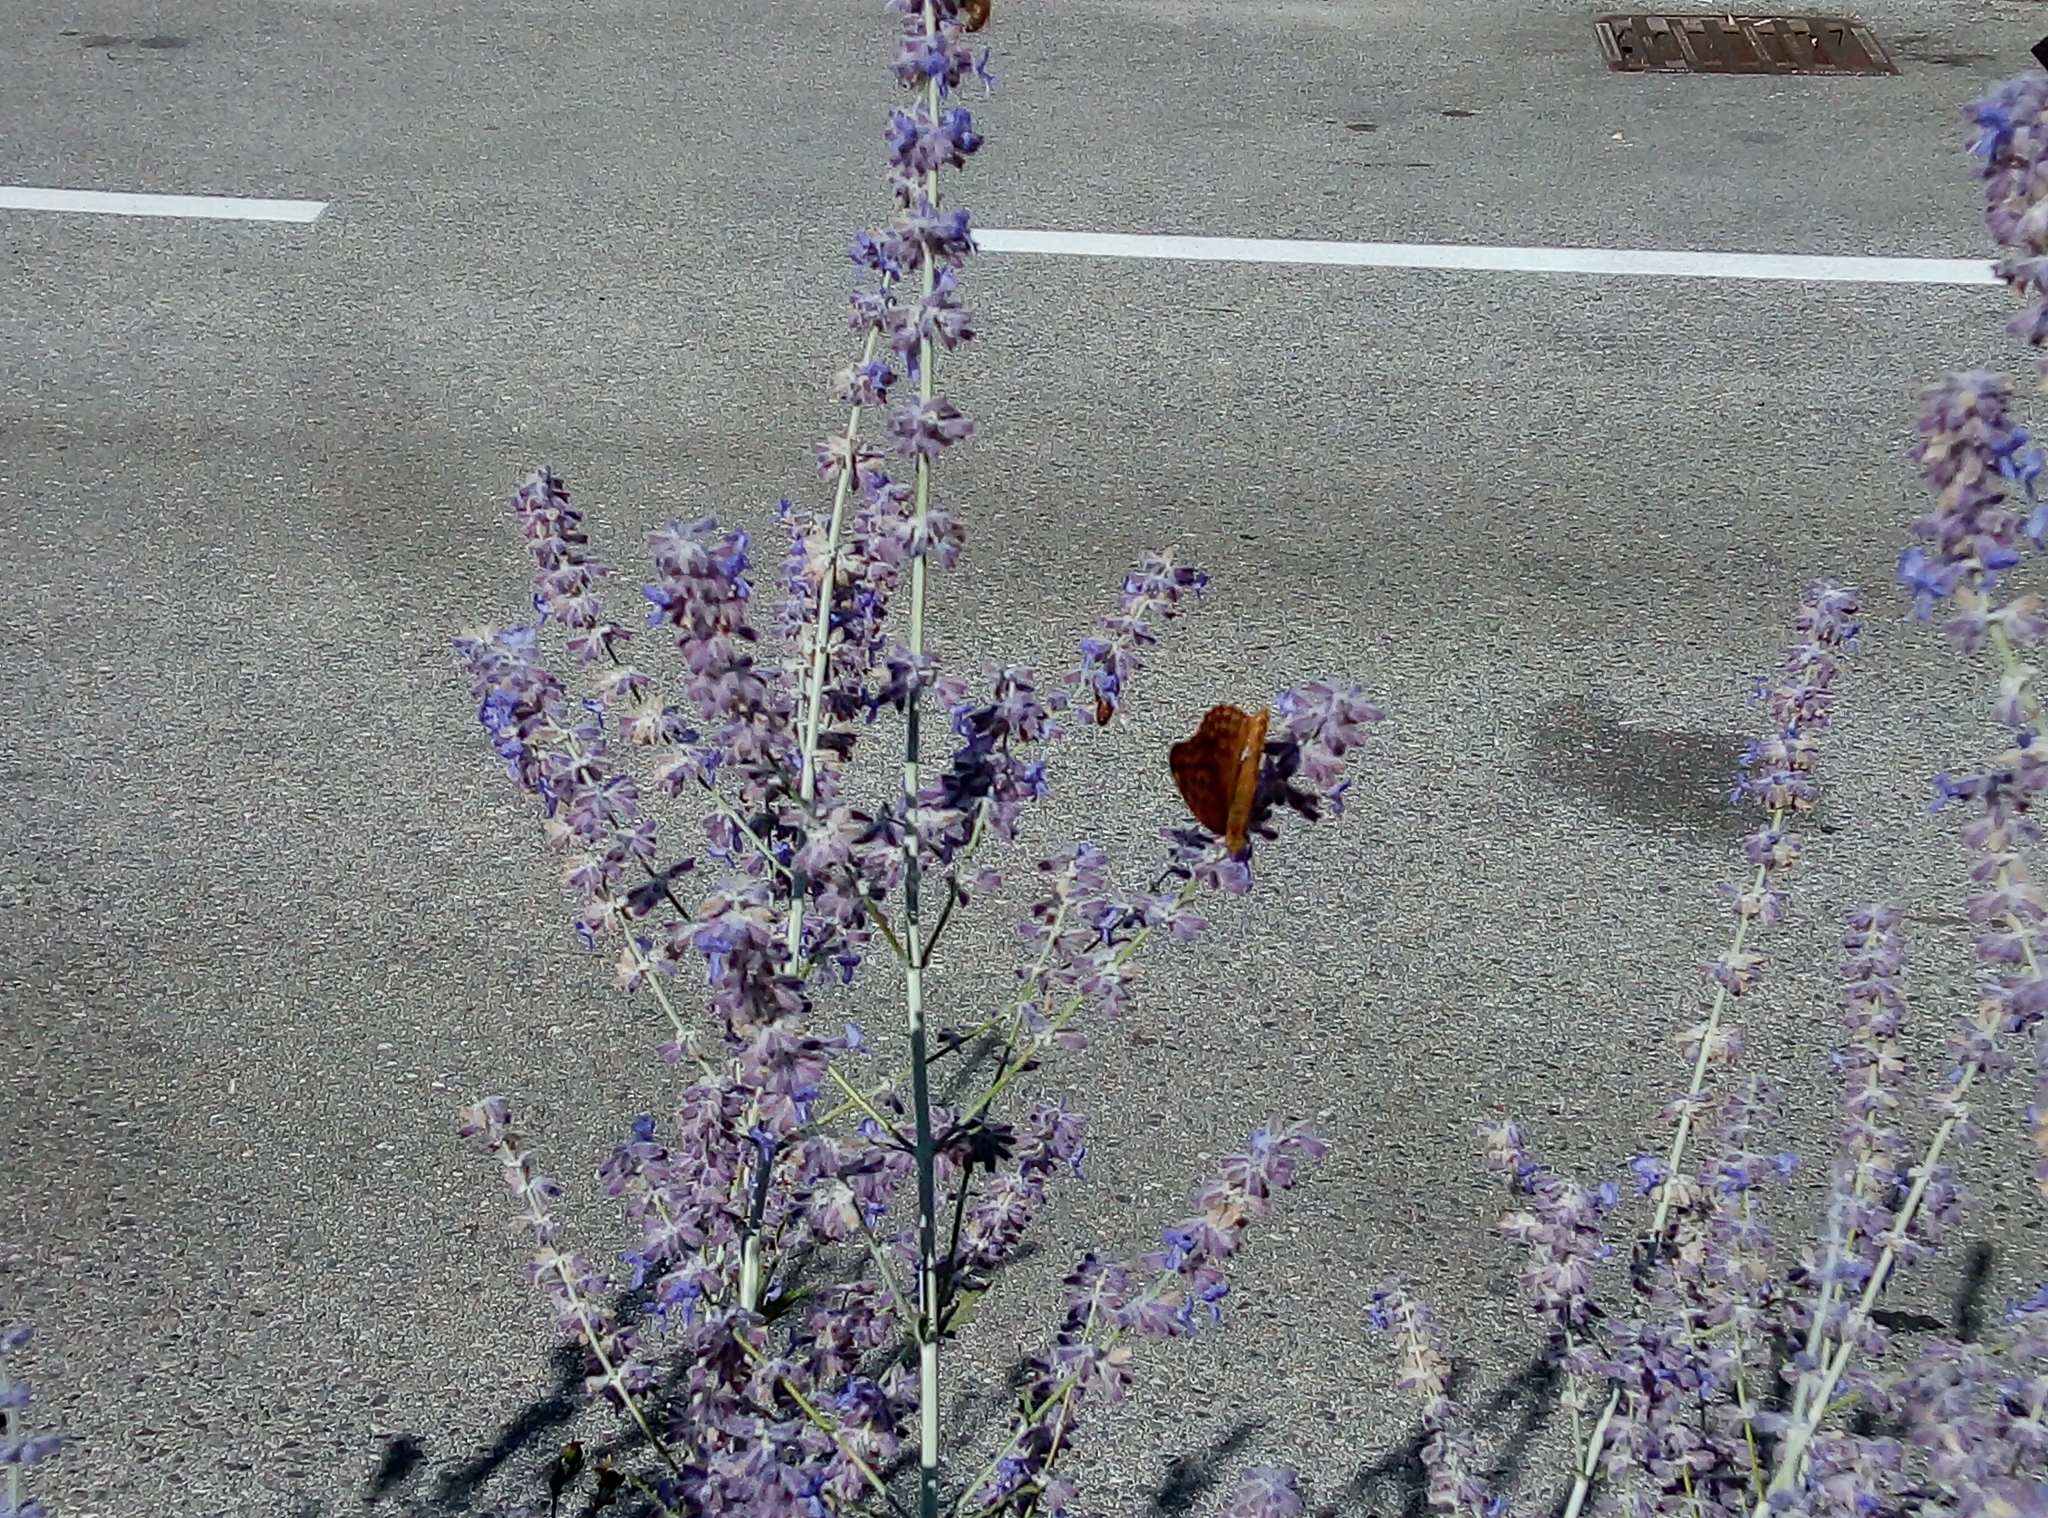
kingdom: Animalia
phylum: Arthropoda
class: Insecta
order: Lepidoptera
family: Nymphalidae
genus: Argynnis
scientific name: Argynnis paphia
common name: Silver-washed fritillary
